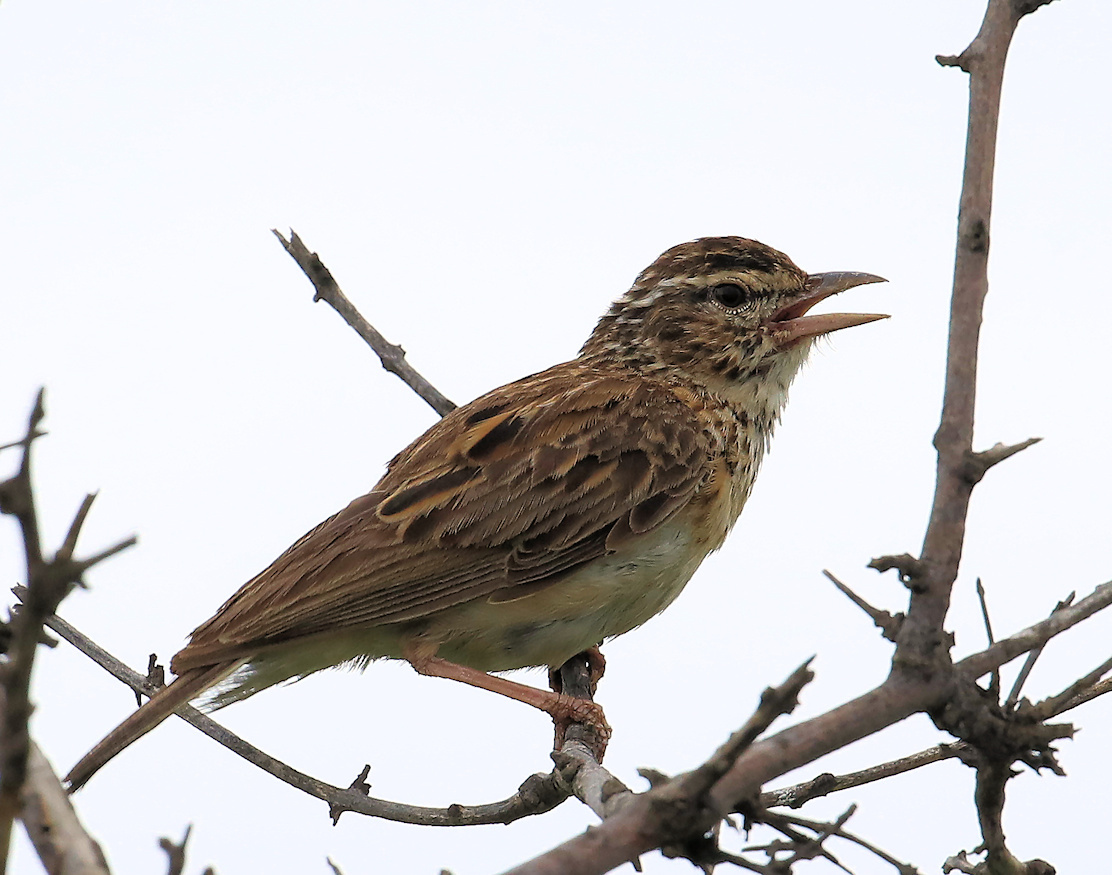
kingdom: Animalia
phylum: Chordata
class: Aves
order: Passeriformes
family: Alaudidae
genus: Calendulauda
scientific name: Calendulauda sabota
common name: Sabota lark
